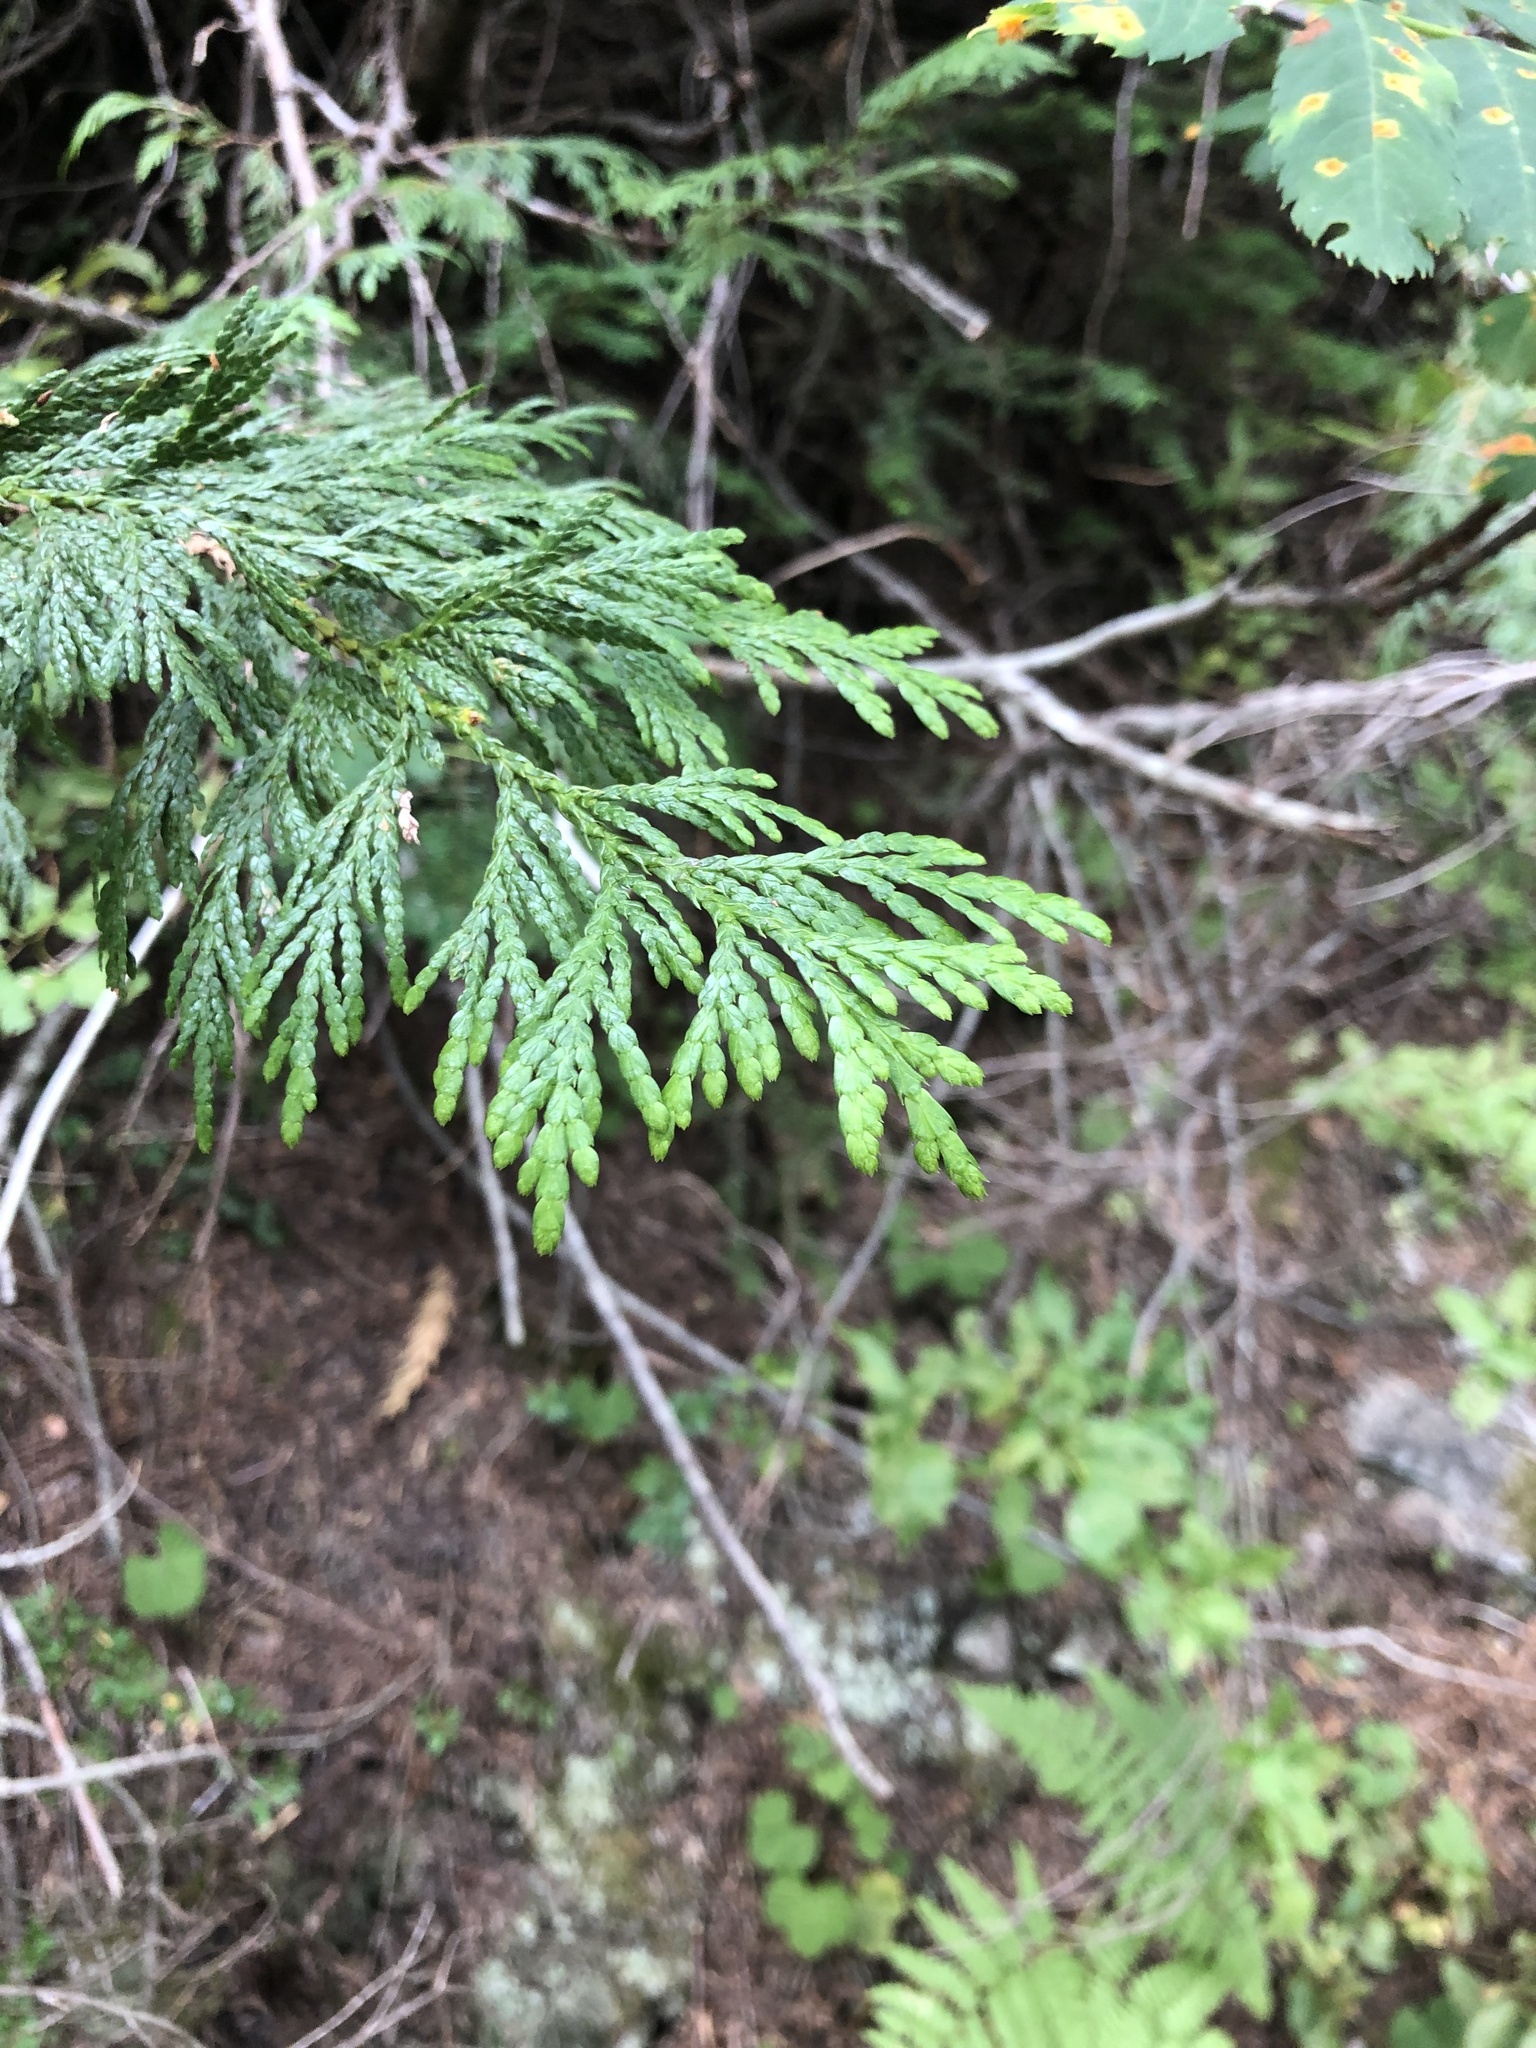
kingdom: Plantae
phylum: Tracheophyta
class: Pinopsida
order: Pinales
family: Cupressaceae
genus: Thuja
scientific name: Thuja plicata
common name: Western red-cedar
